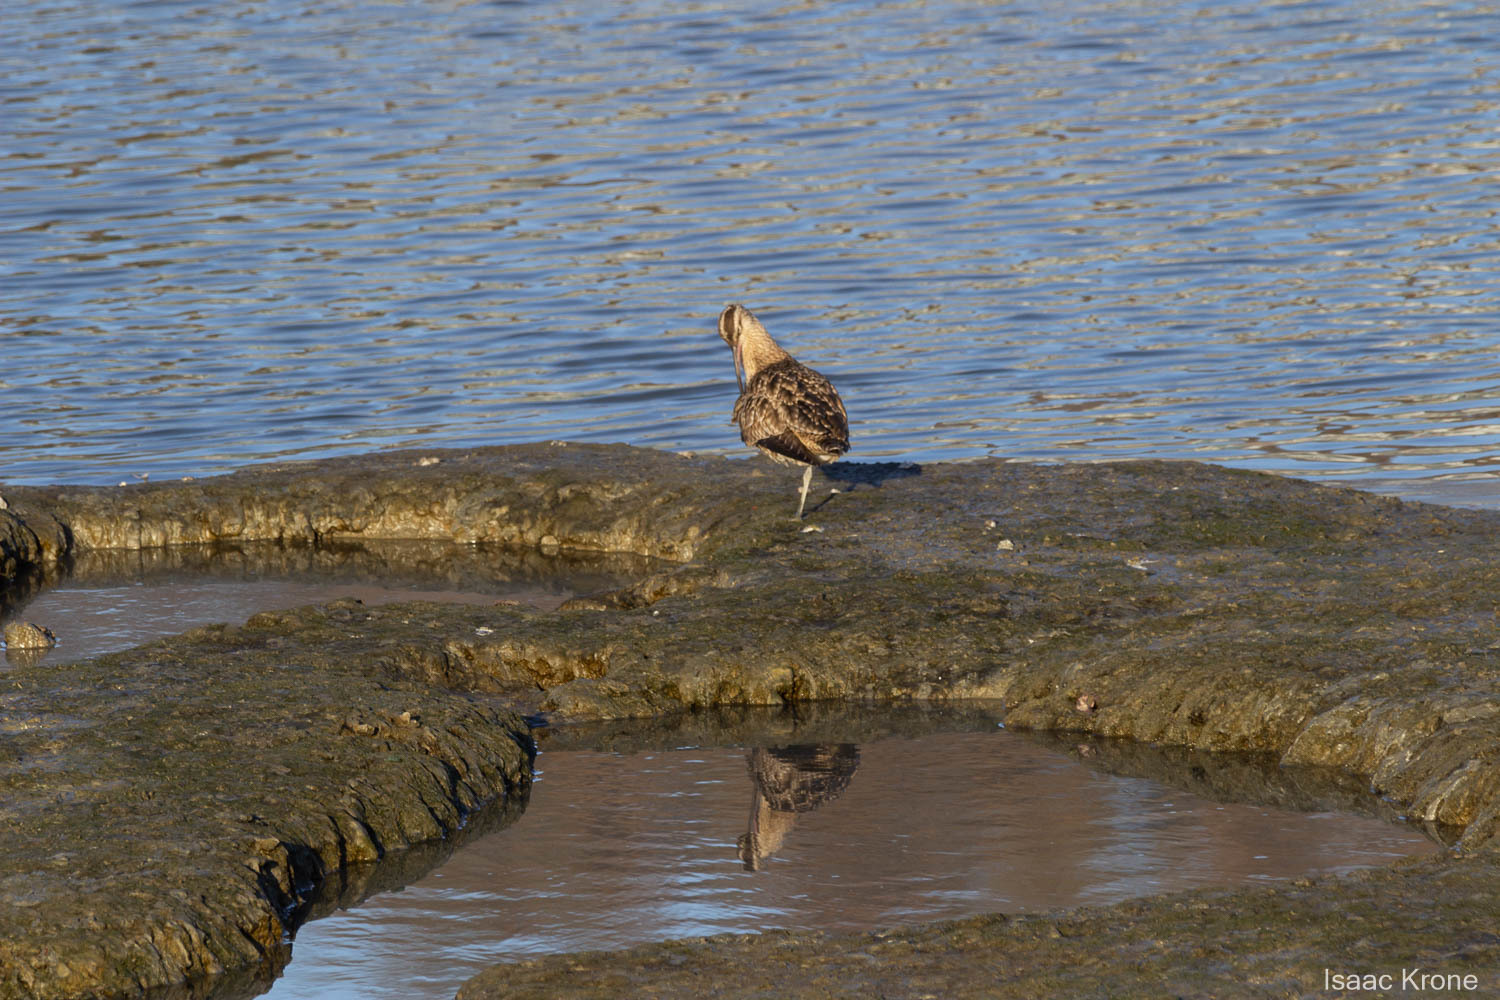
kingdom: Animalia
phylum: Chordata
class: Aves
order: Charadriiformes
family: Scolopacidae
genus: Numenius
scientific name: Numenius phaeopus
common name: Whimbrel
